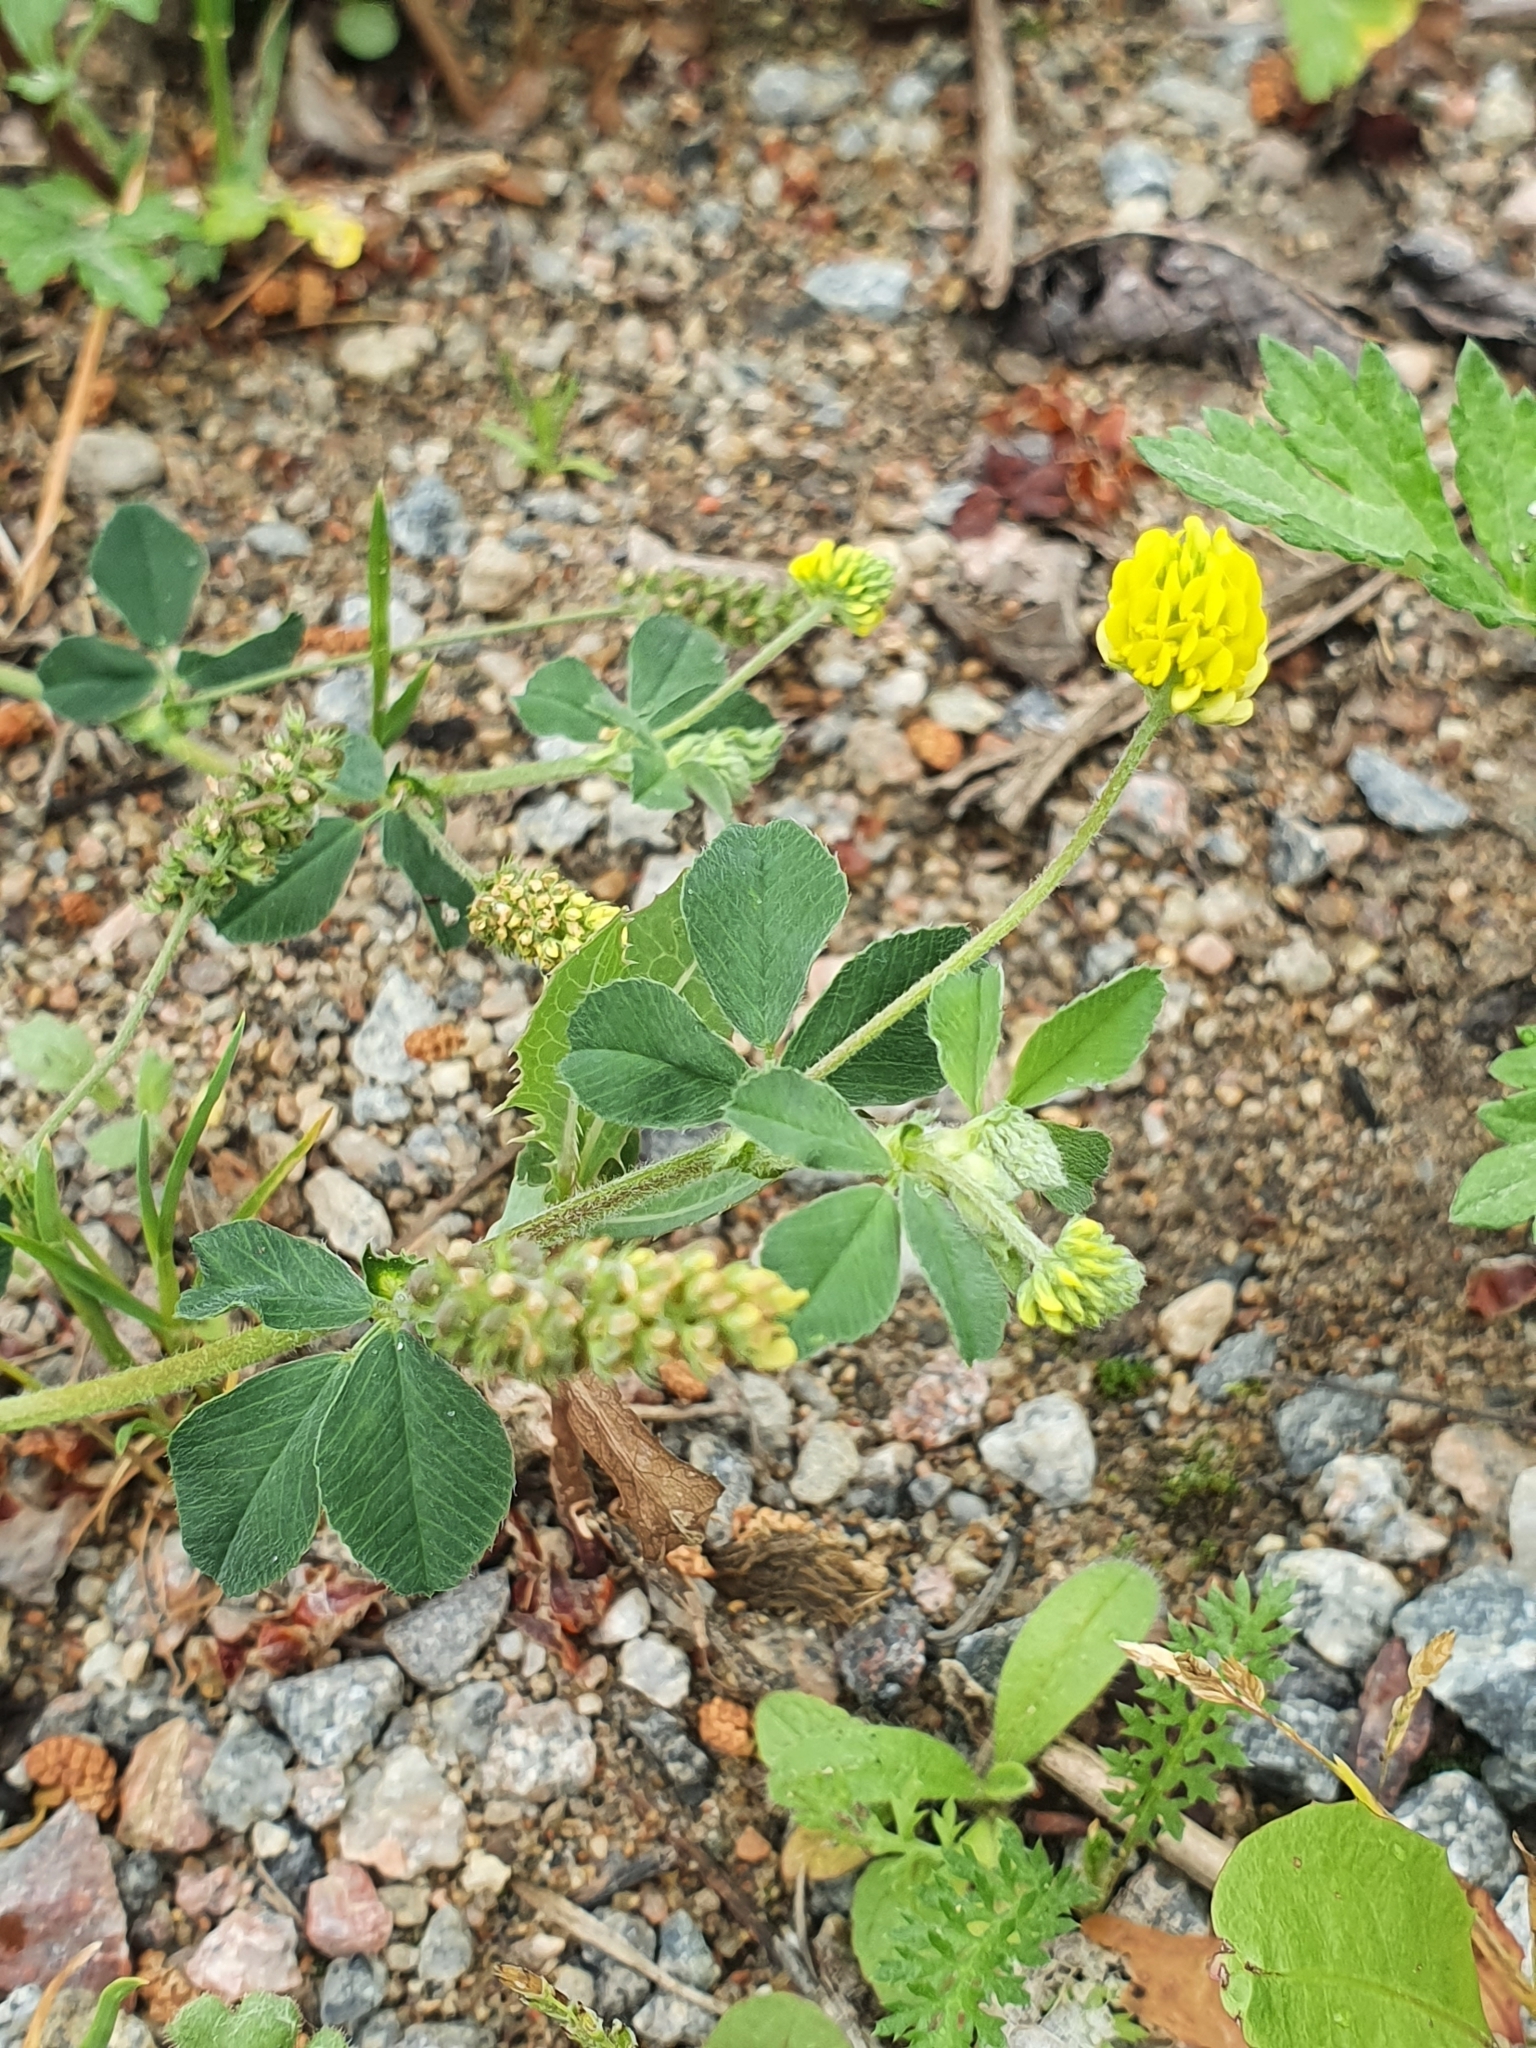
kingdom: Plantae
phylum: Tracheophyta
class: Magnoliopsida
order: Fabales
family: Fabaceae
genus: Medicago
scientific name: Medicago lupulina
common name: Black medick
